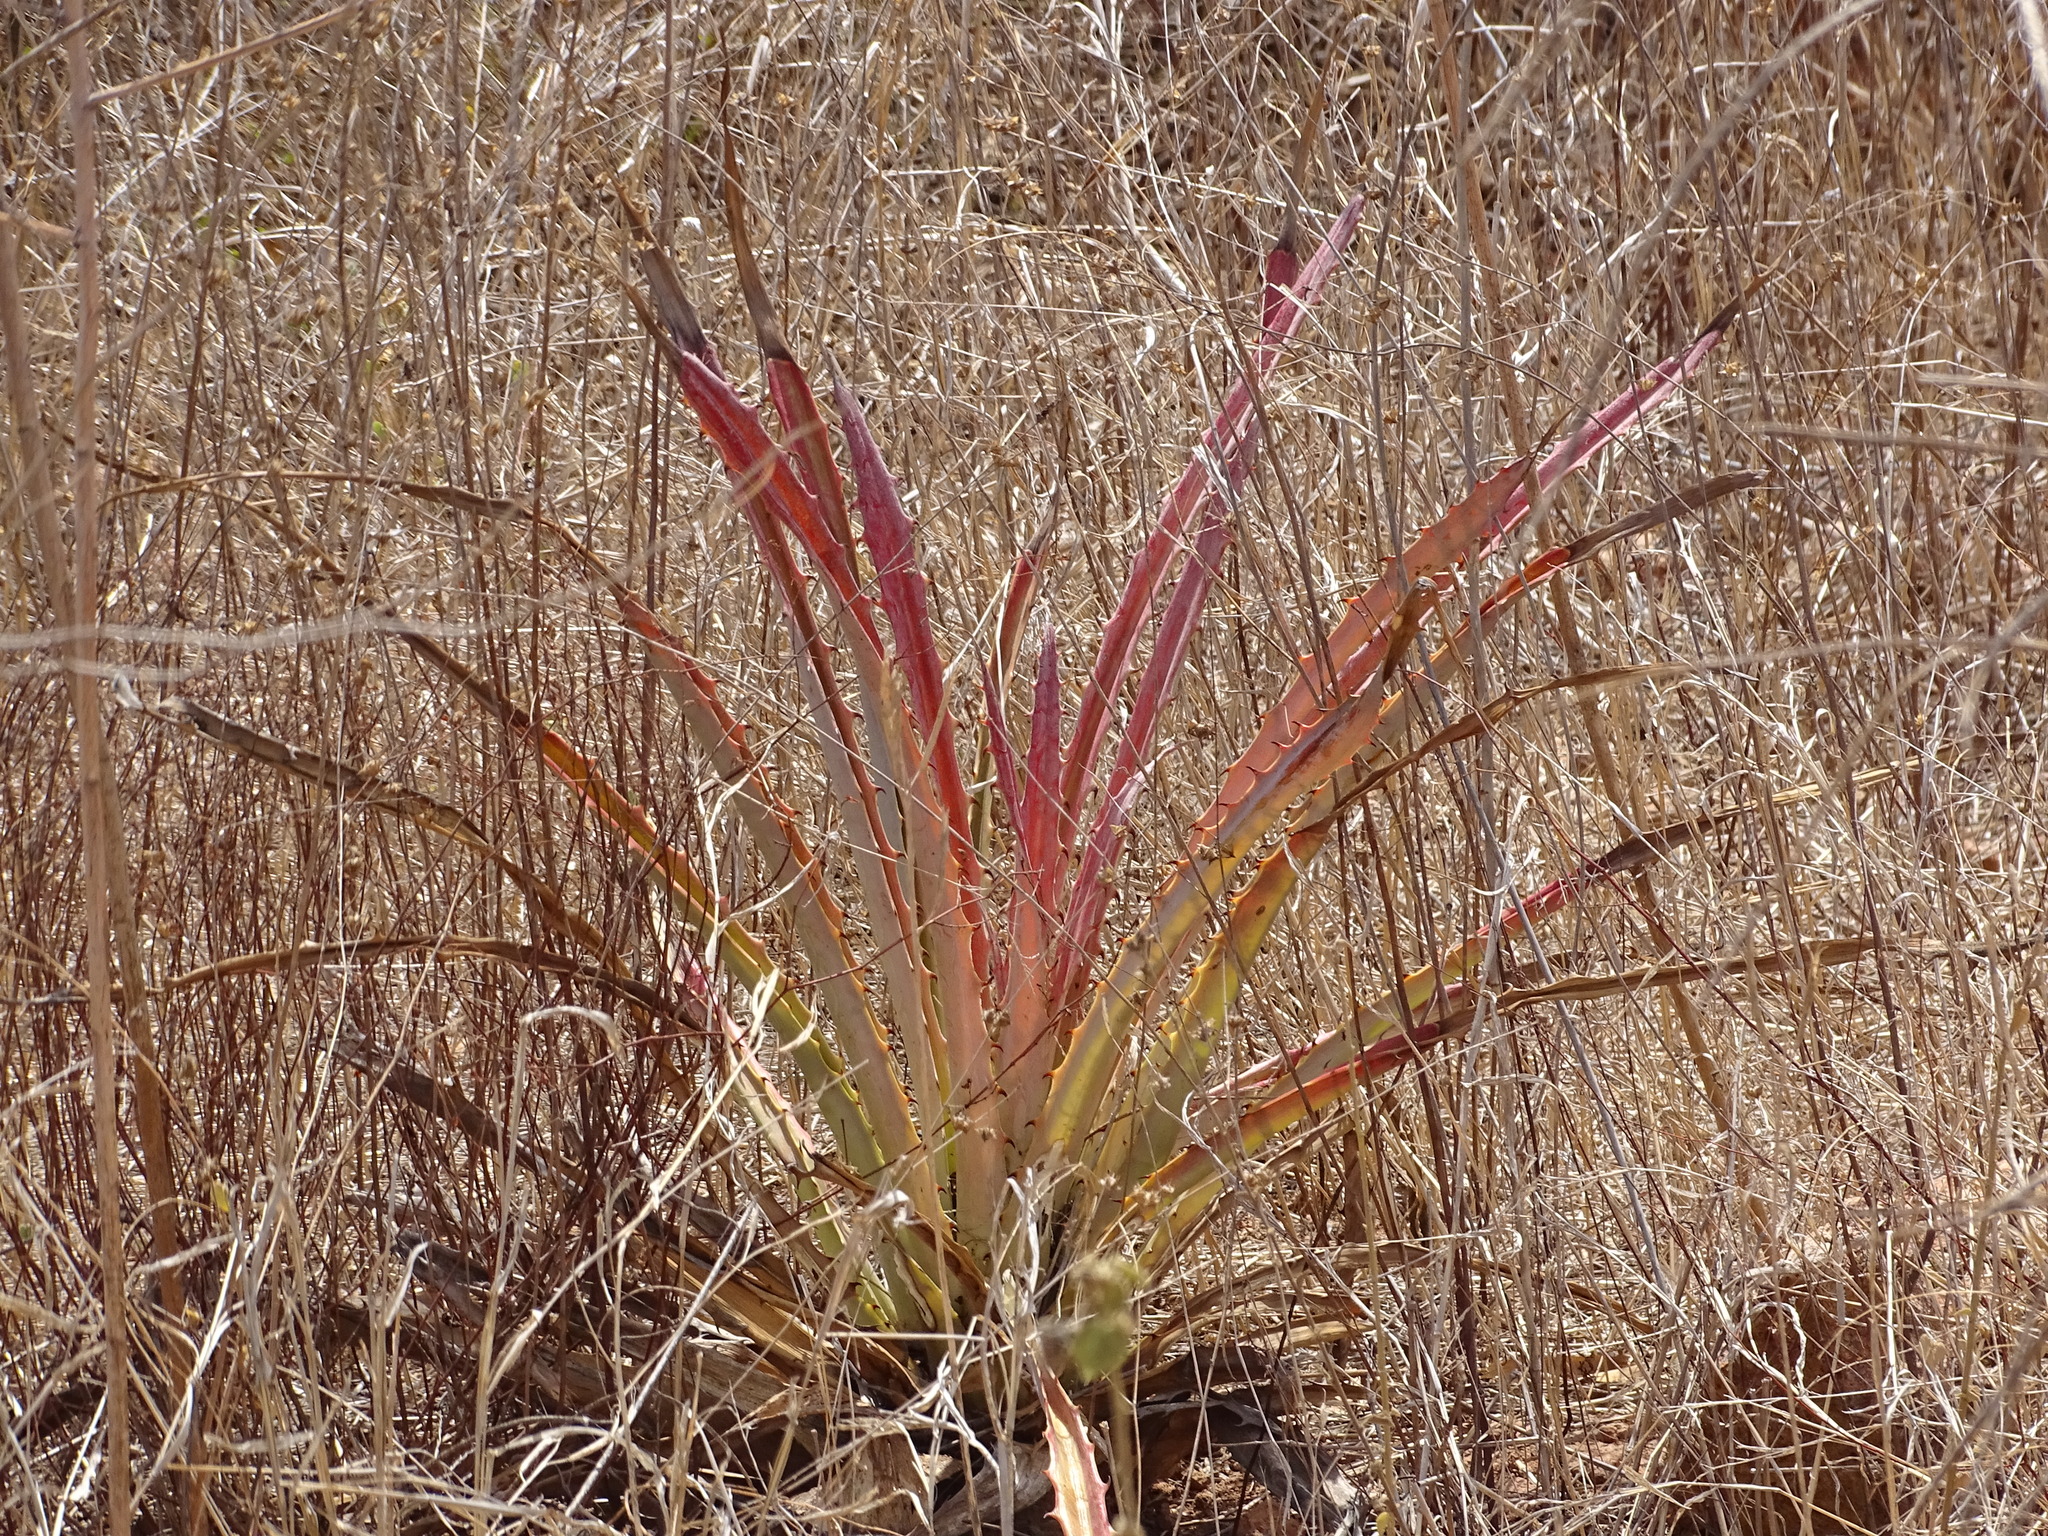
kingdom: Plantae
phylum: Tracheophyta
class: Liliopsida
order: Poales
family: Bromeliaceae
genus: Bromelia
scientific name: Bromelia pinguin
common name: Pinguin
